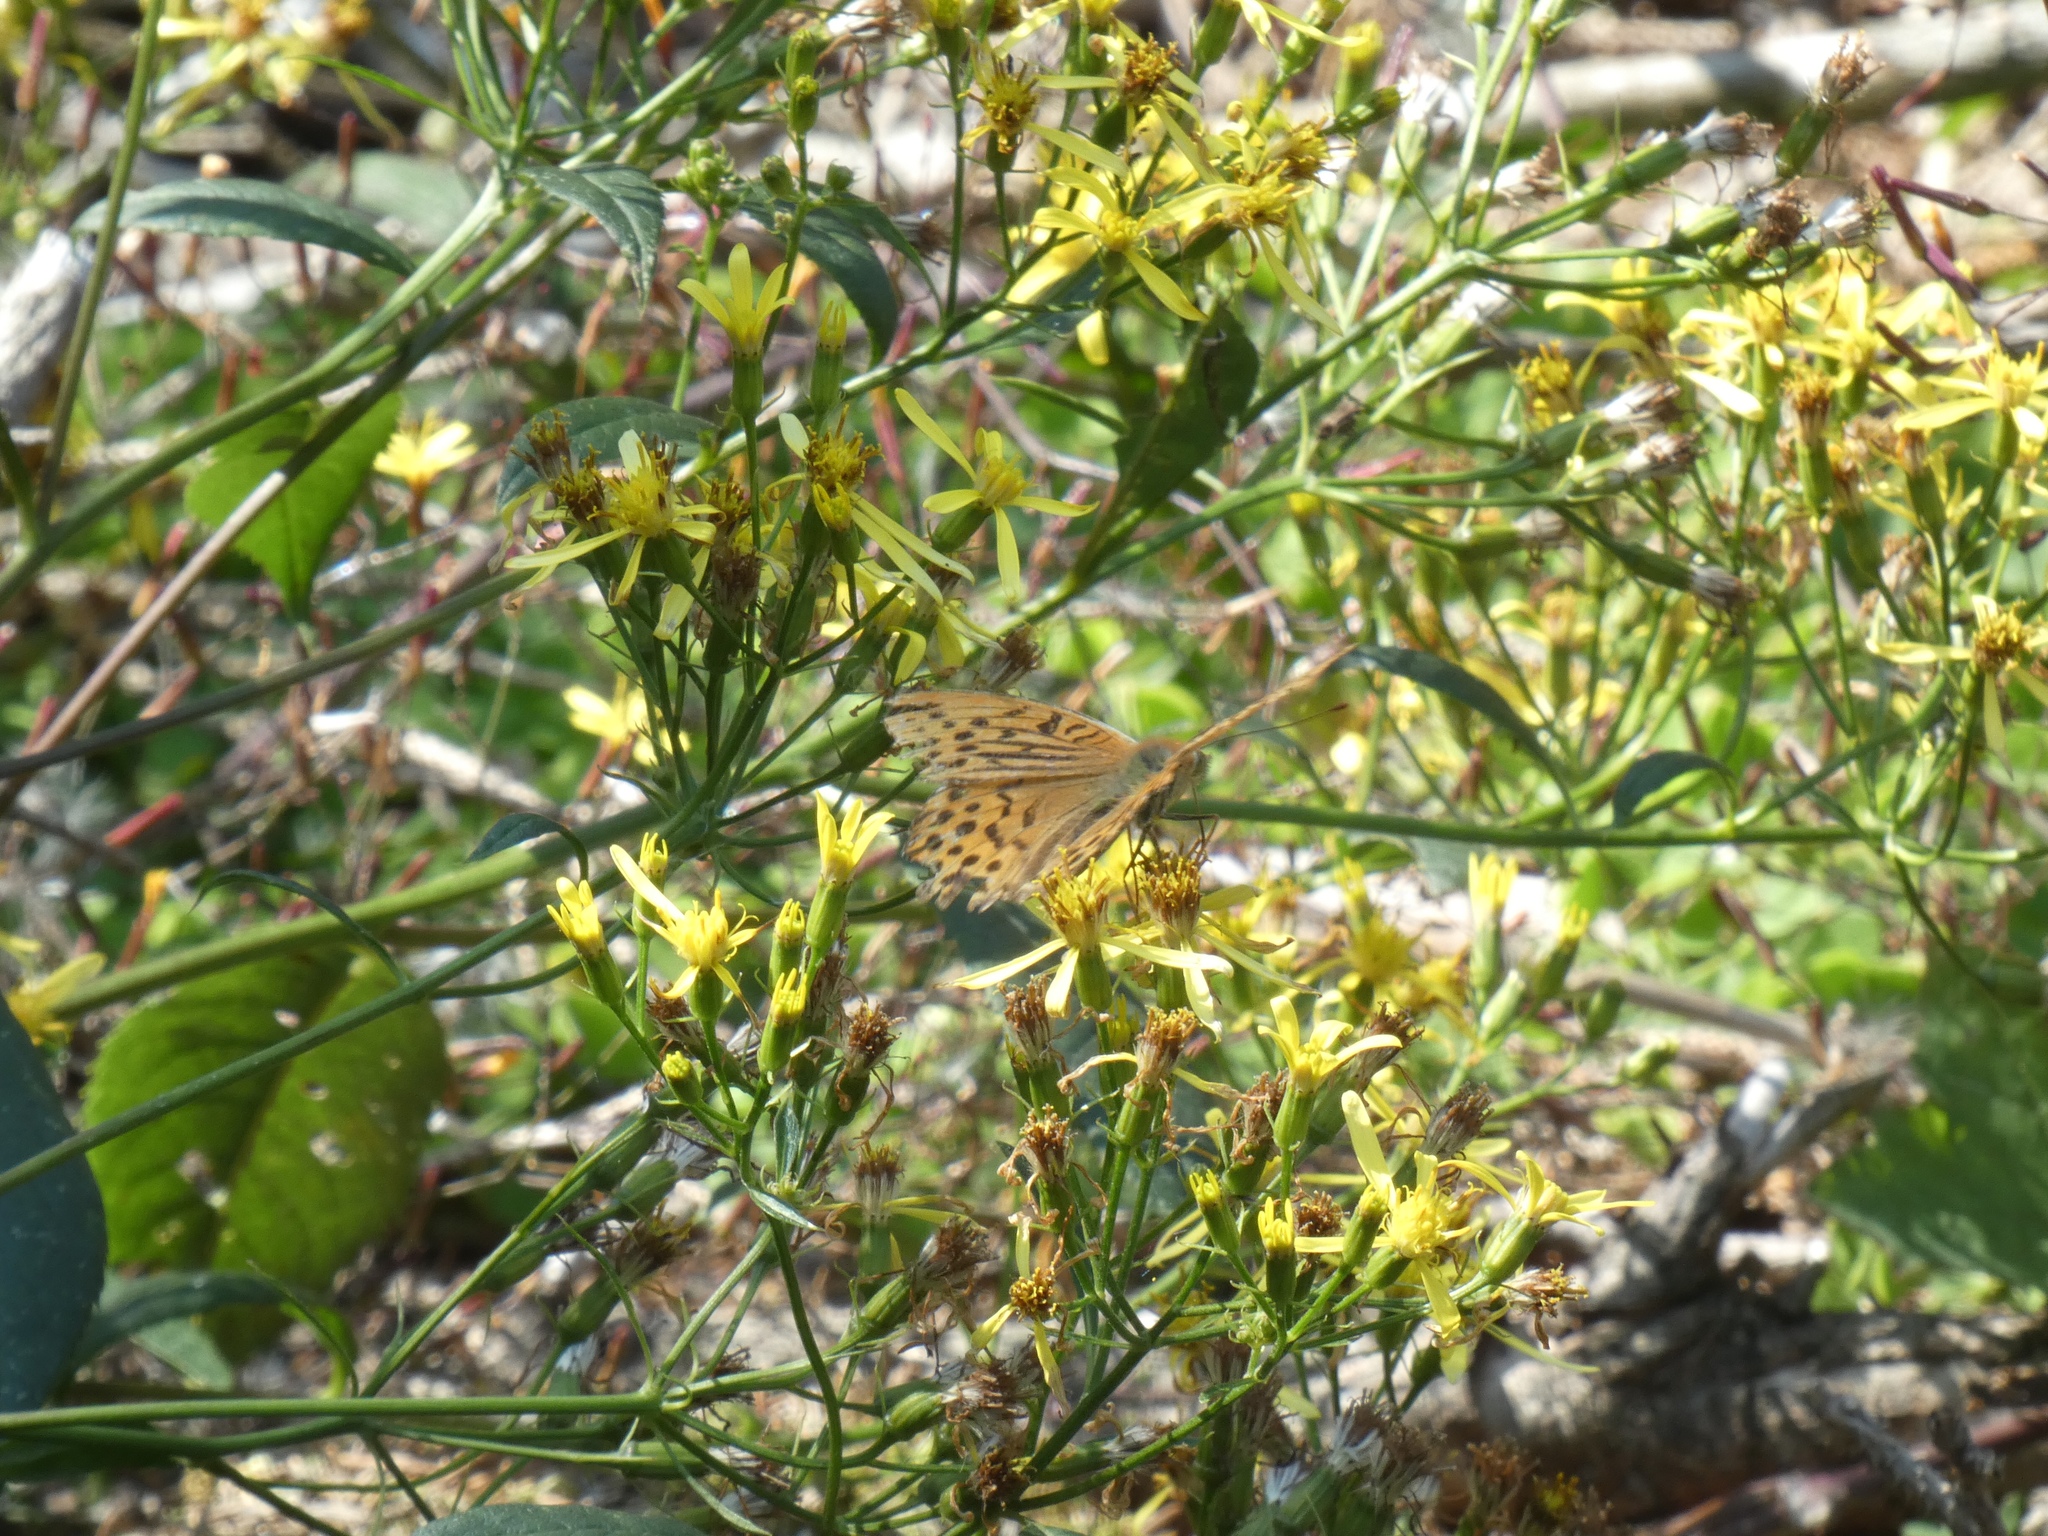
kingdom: Animalia
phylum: Arthropoda
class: Insecta
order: Lepidoptera
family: Nymphalidae
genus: Argynnis
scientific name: Argynnis paphia
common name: Silver-washed fritillary
